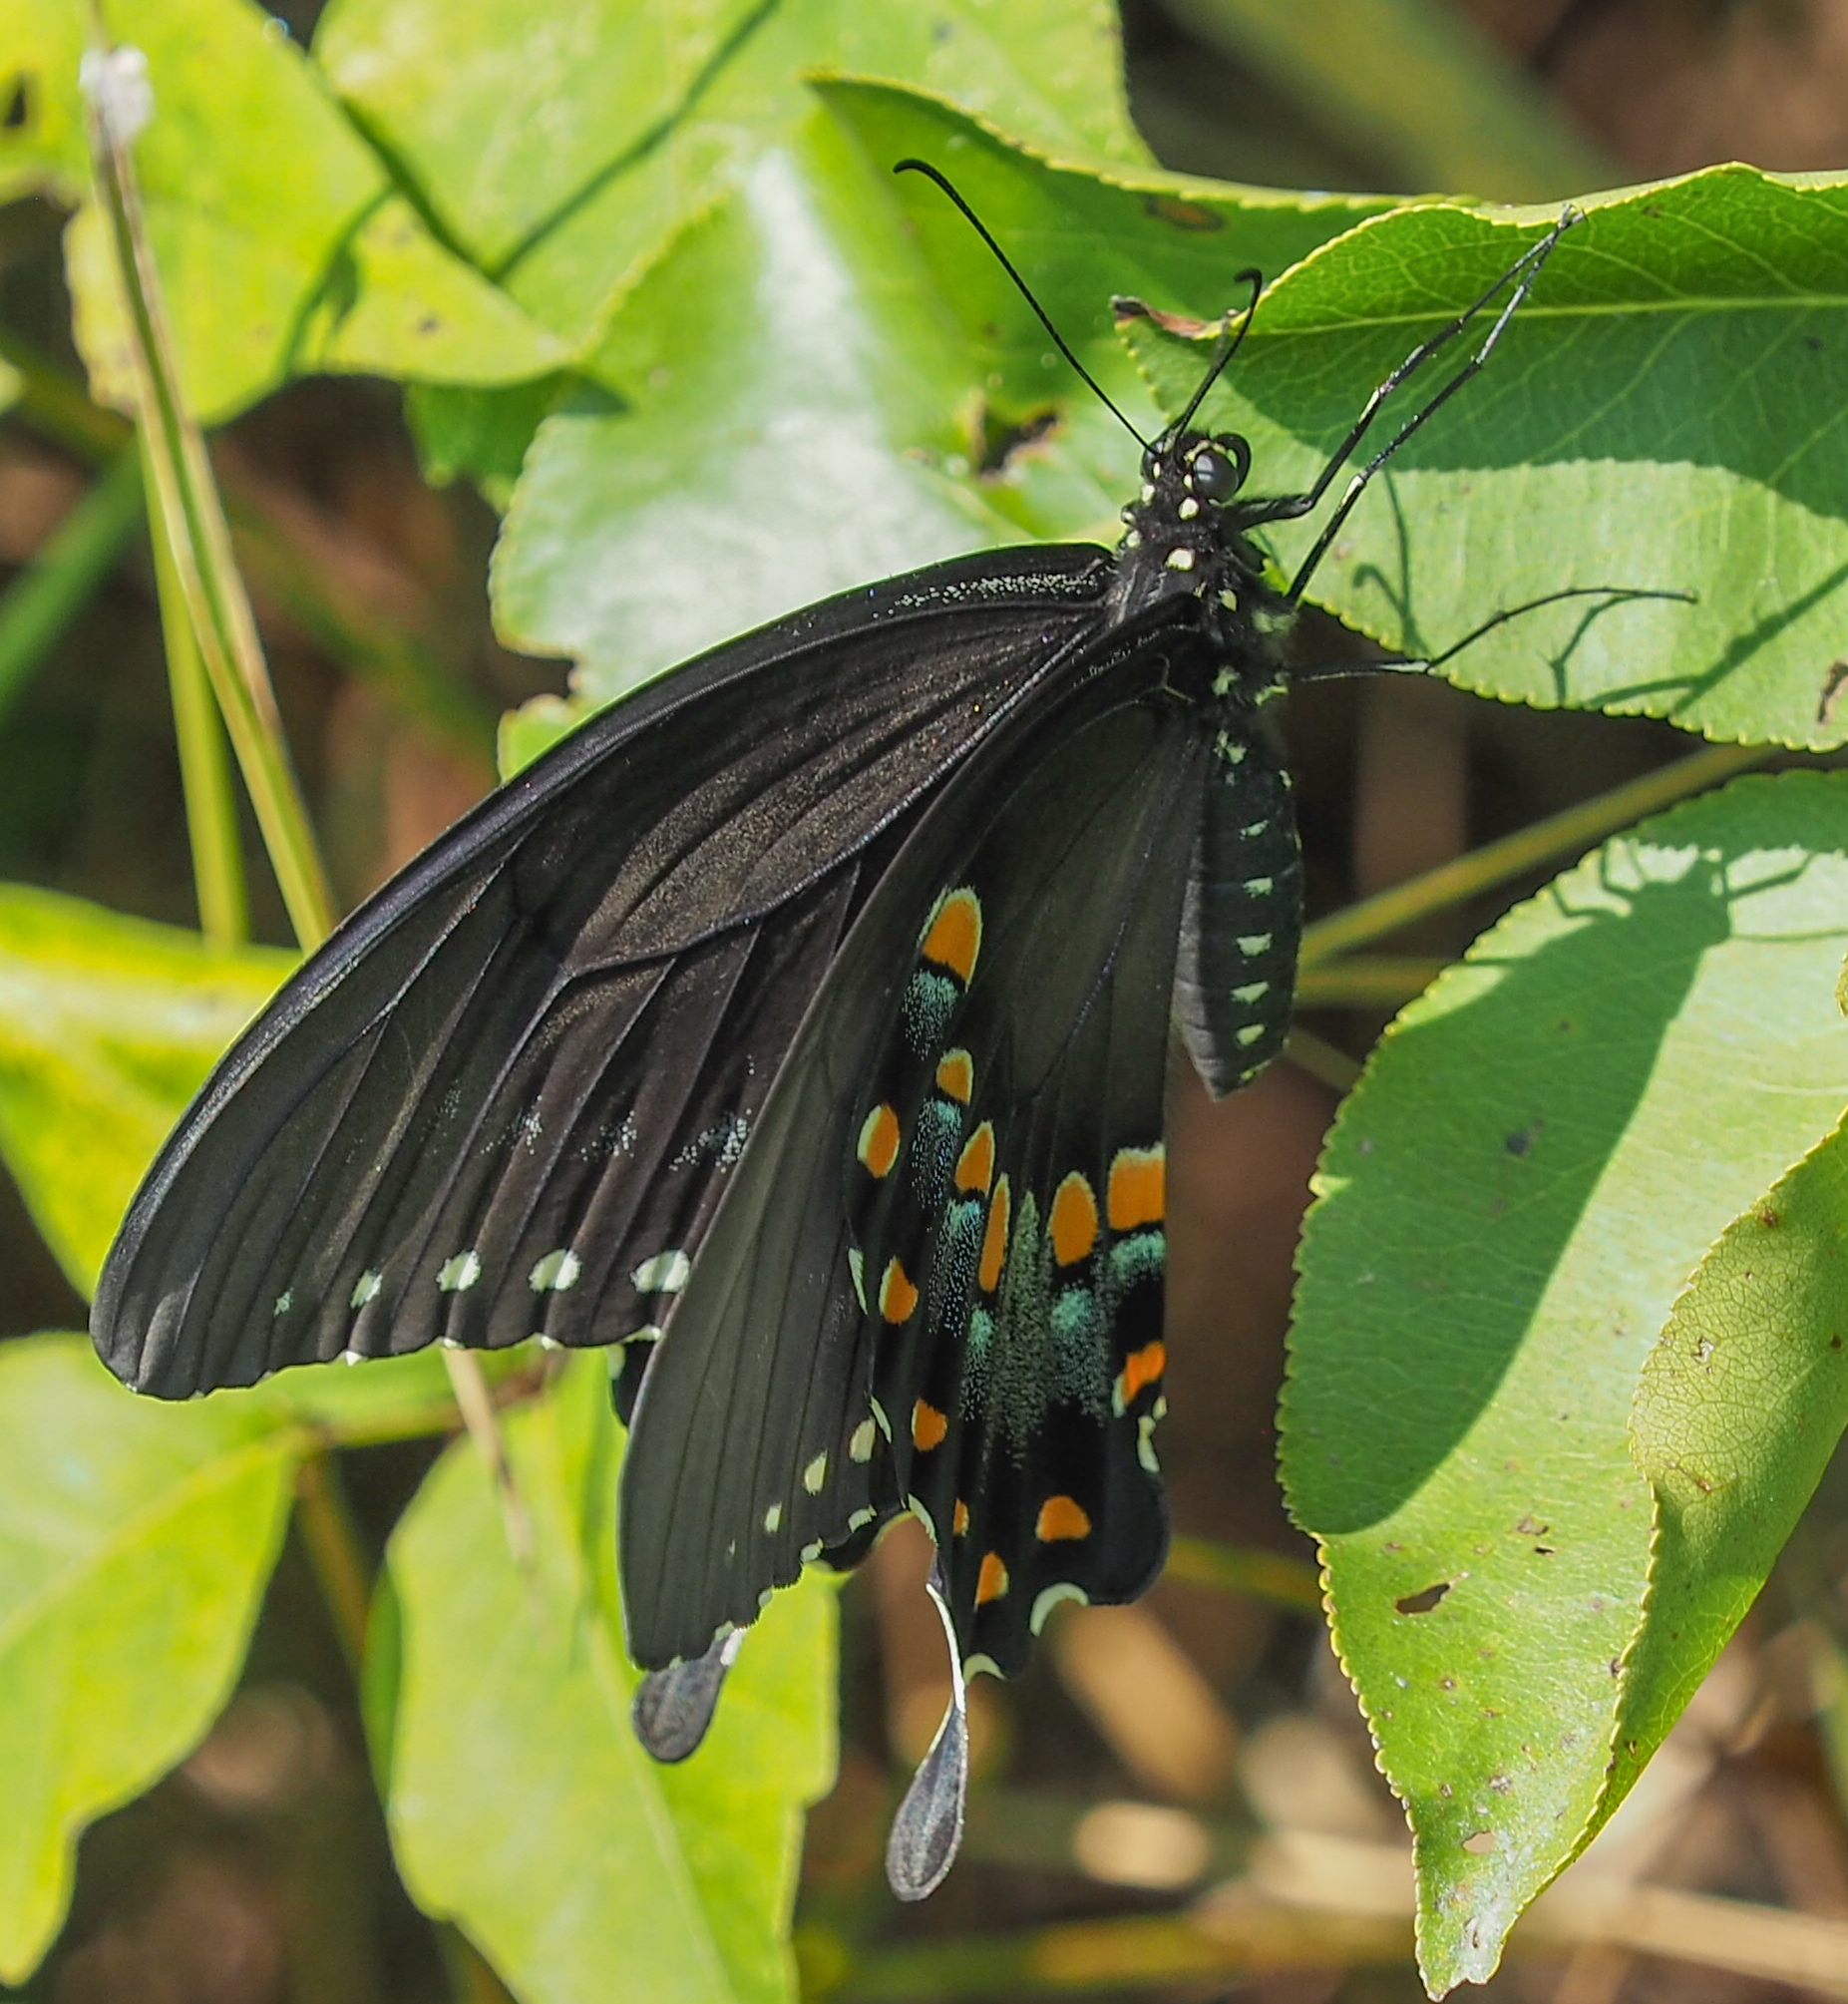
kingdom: Animalia
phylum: Arthropoda
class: Insecta
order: Lepidoptera
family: Papilionidae
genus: Papilio
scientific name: Papilio troilus
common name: Spicebush swallowtail
